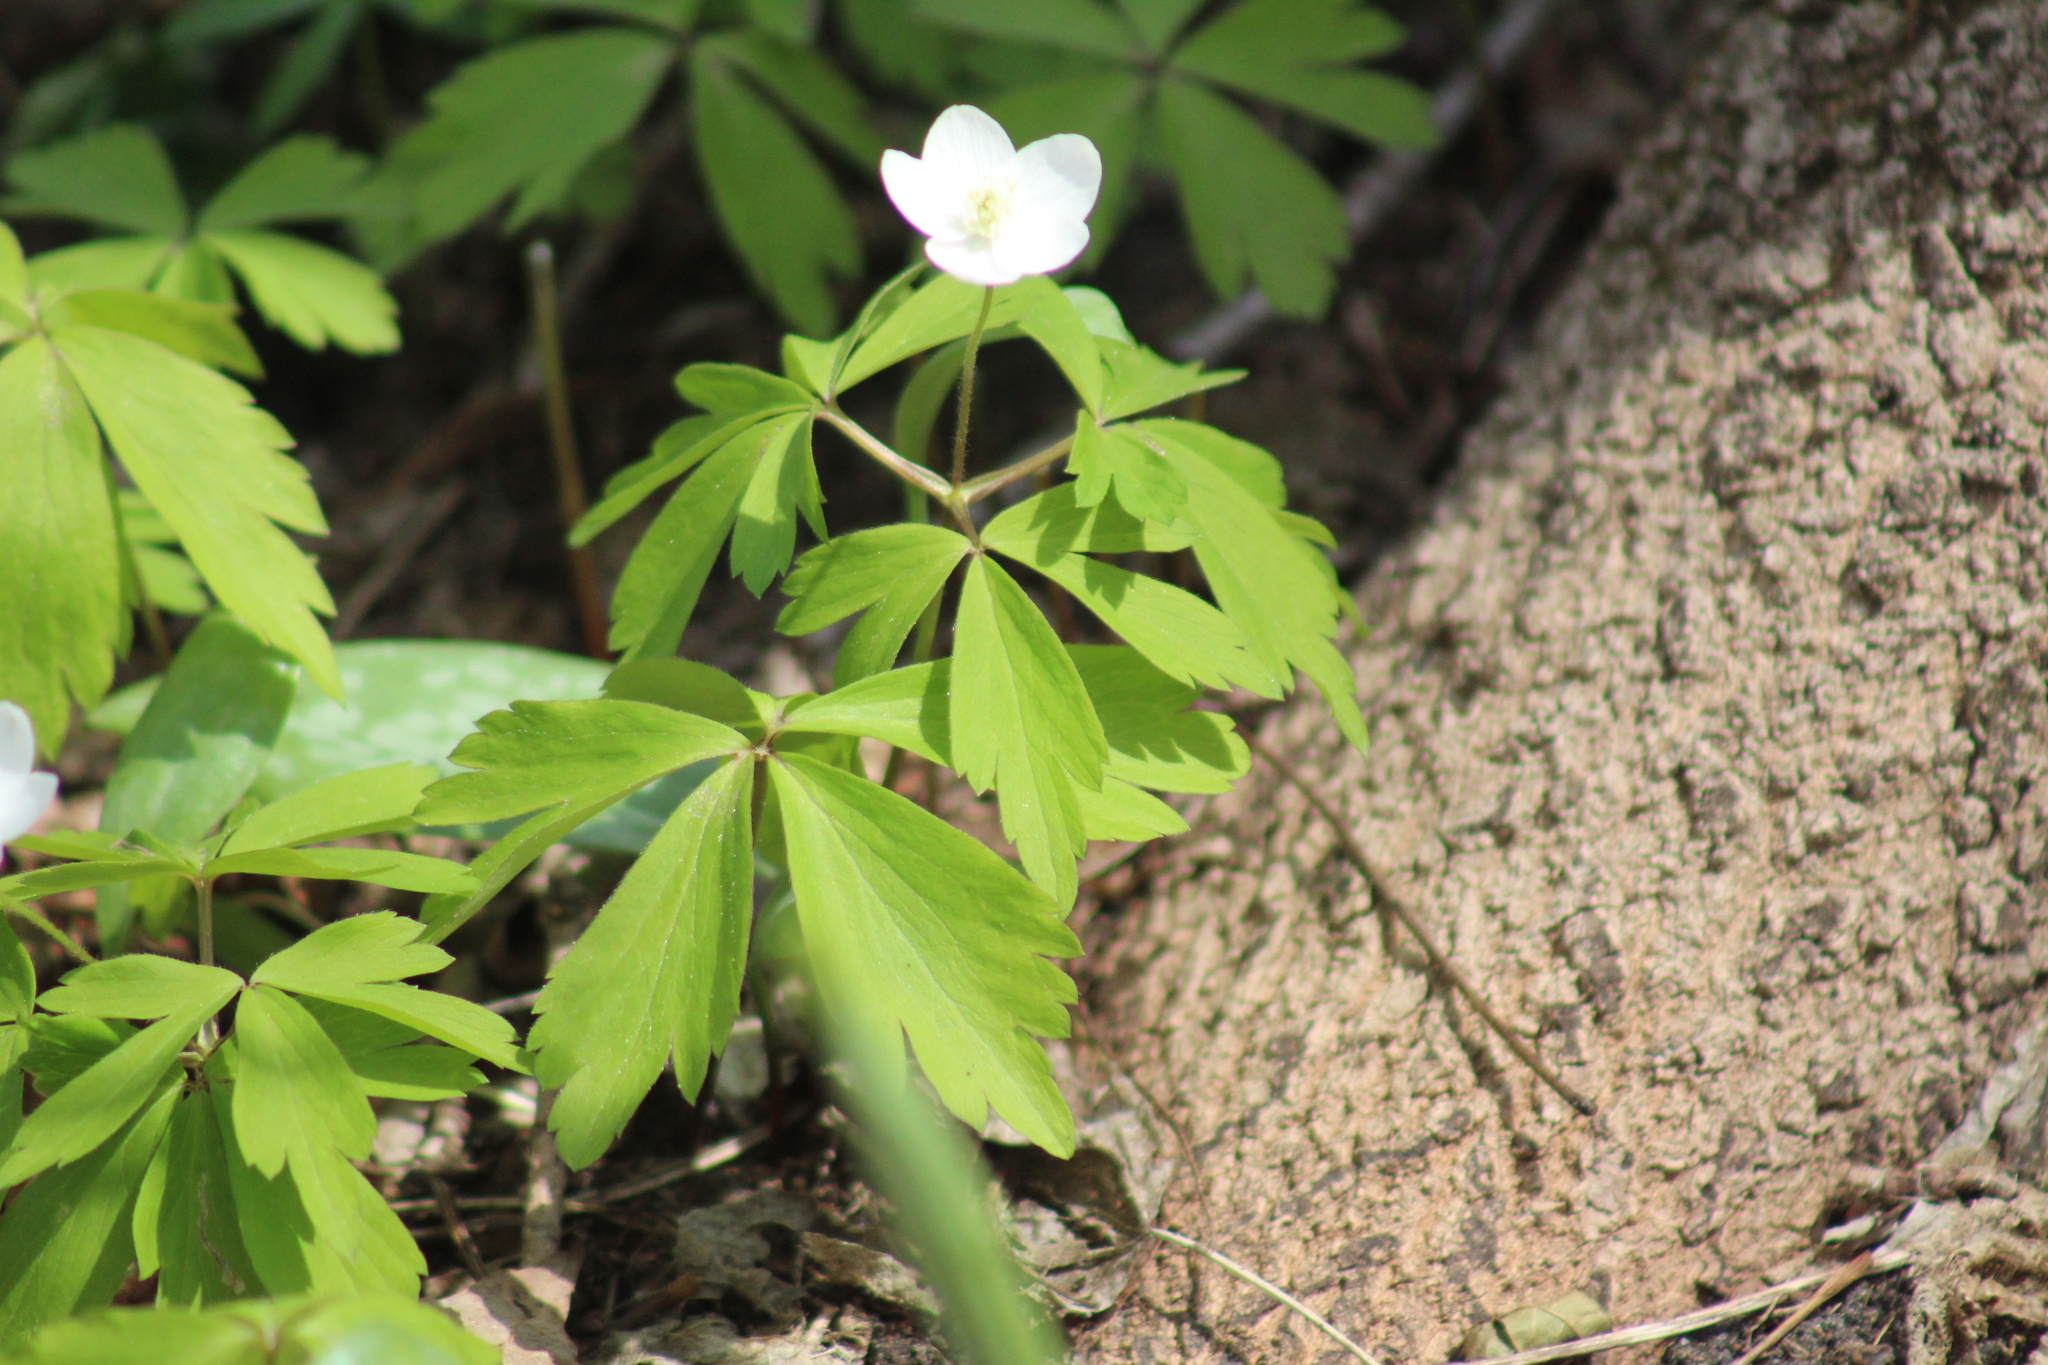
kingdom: Plantae
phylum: Tracheophyta
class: Magnoliopsida
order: Ranunculales
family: Ranunculaceae
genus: Anemone
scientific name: Anemone quinquefolia
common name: Wood anemone
